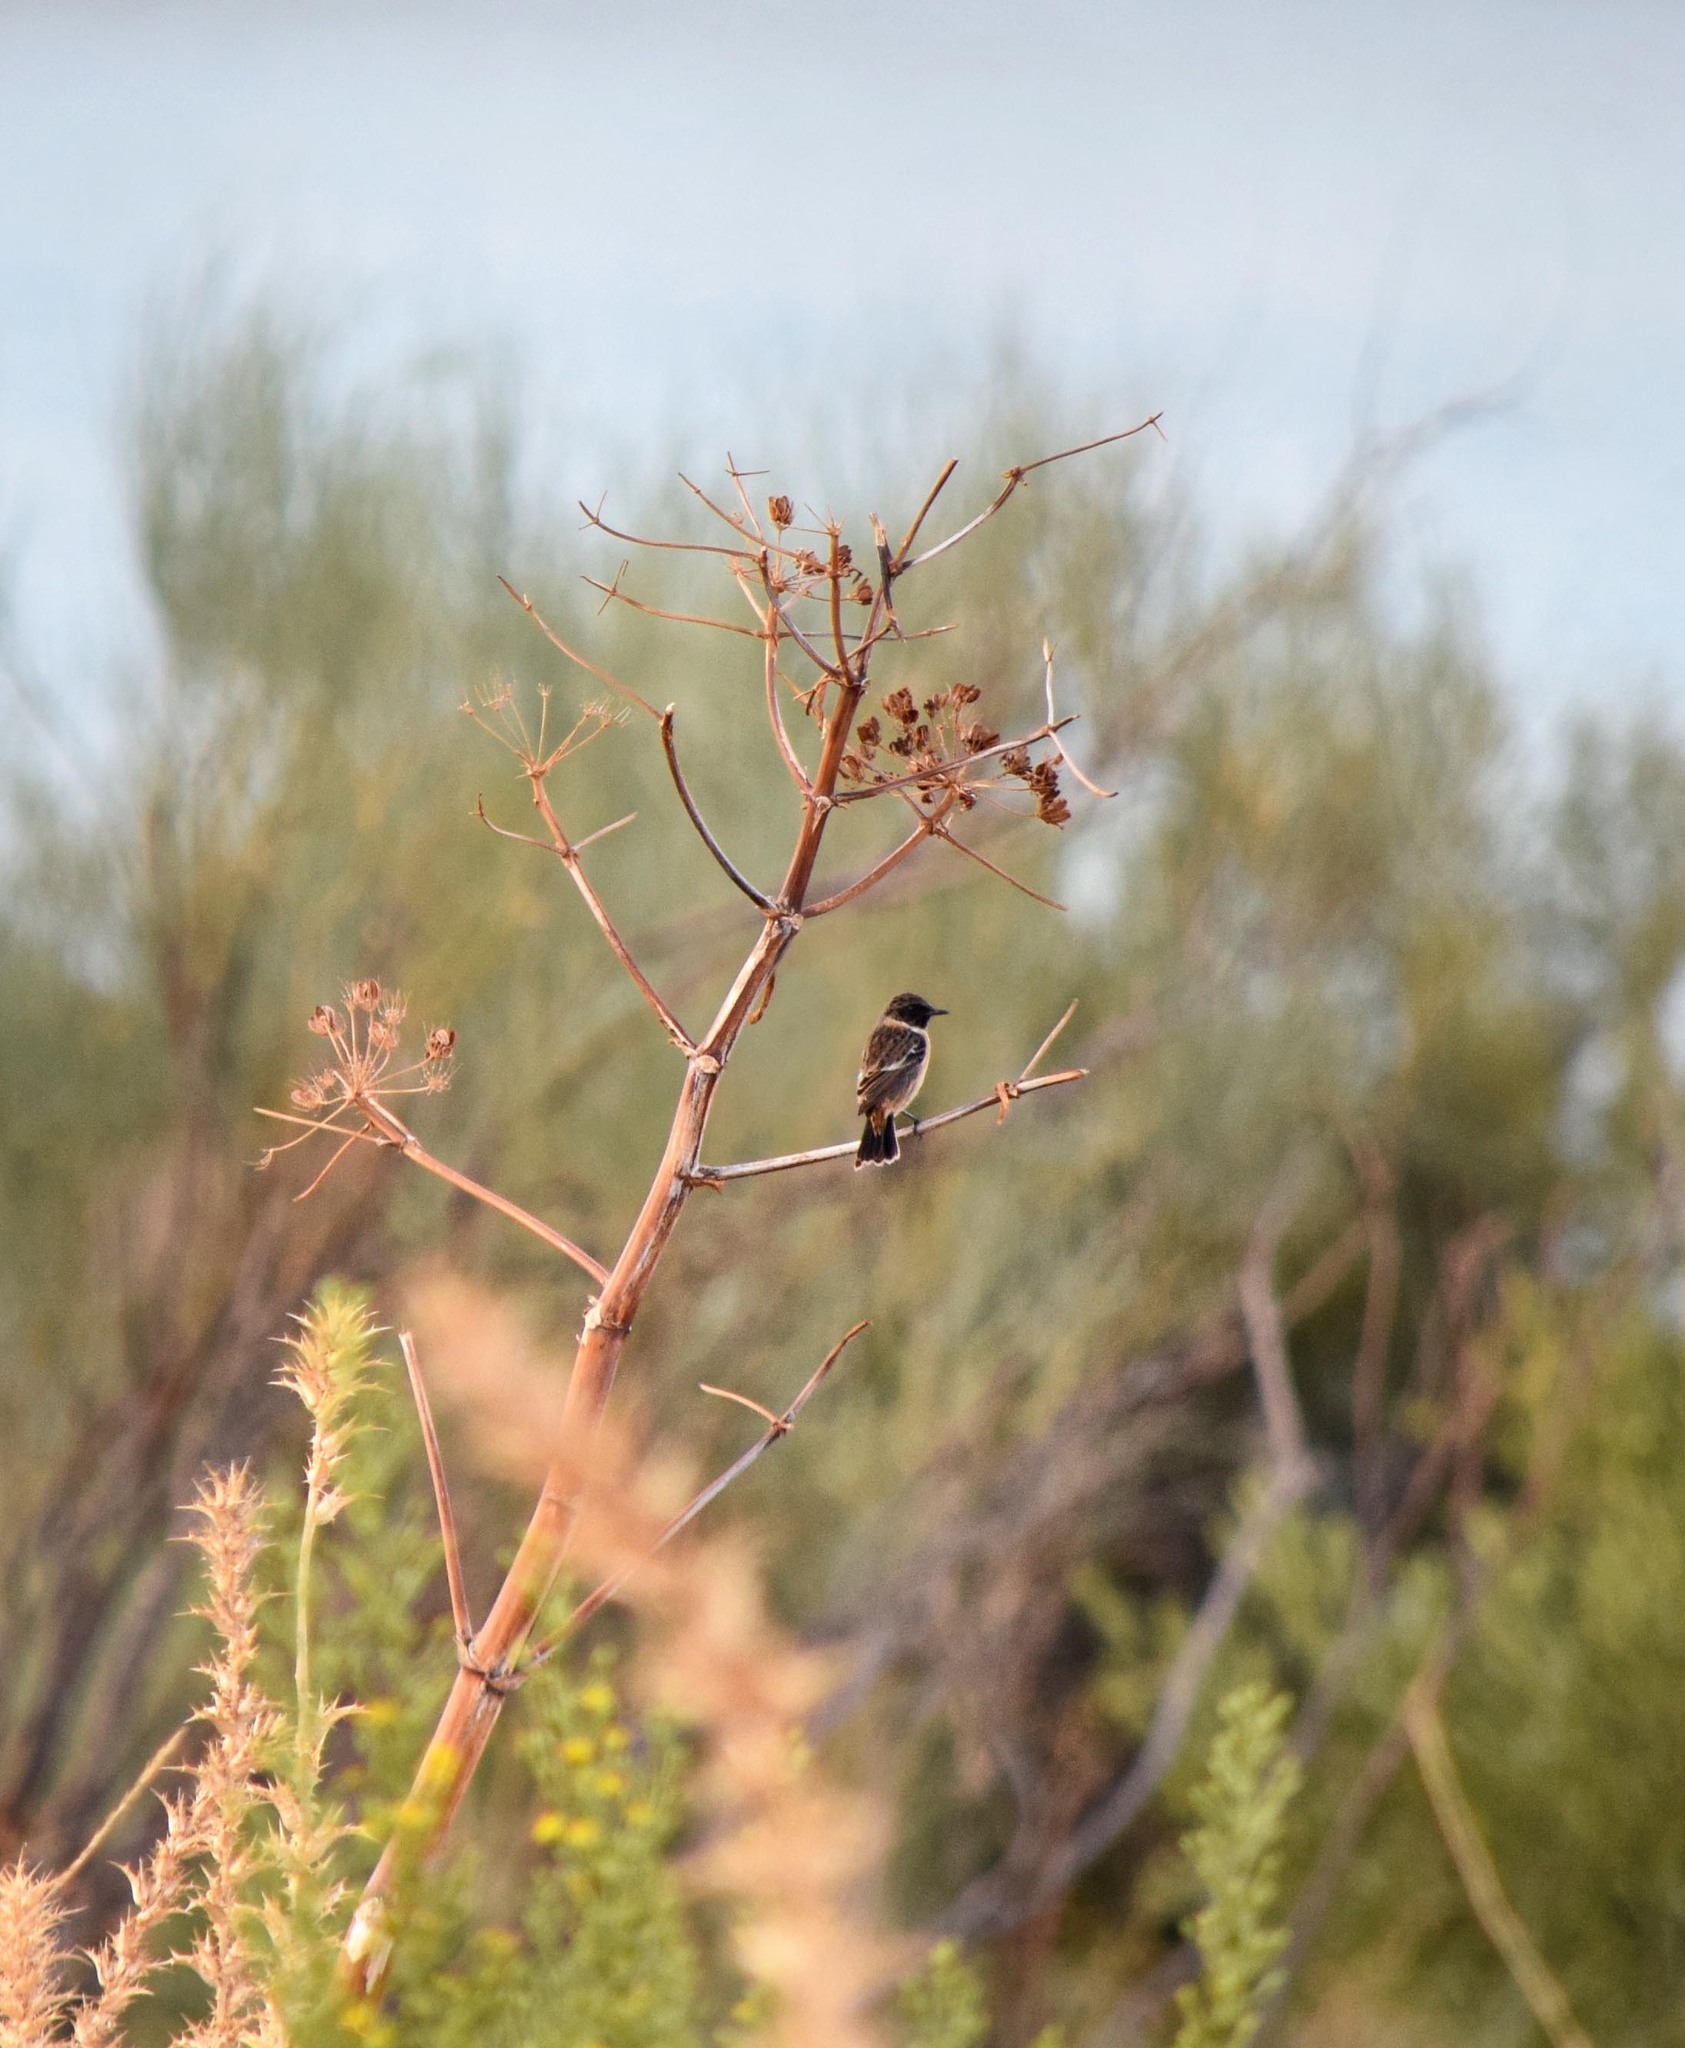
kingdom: Animalia
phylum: Chordata
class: Aves
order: Passeriformes
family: Muscicapidae
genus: Saxicola
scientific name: Saxicola rubicola
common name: European stonechat
